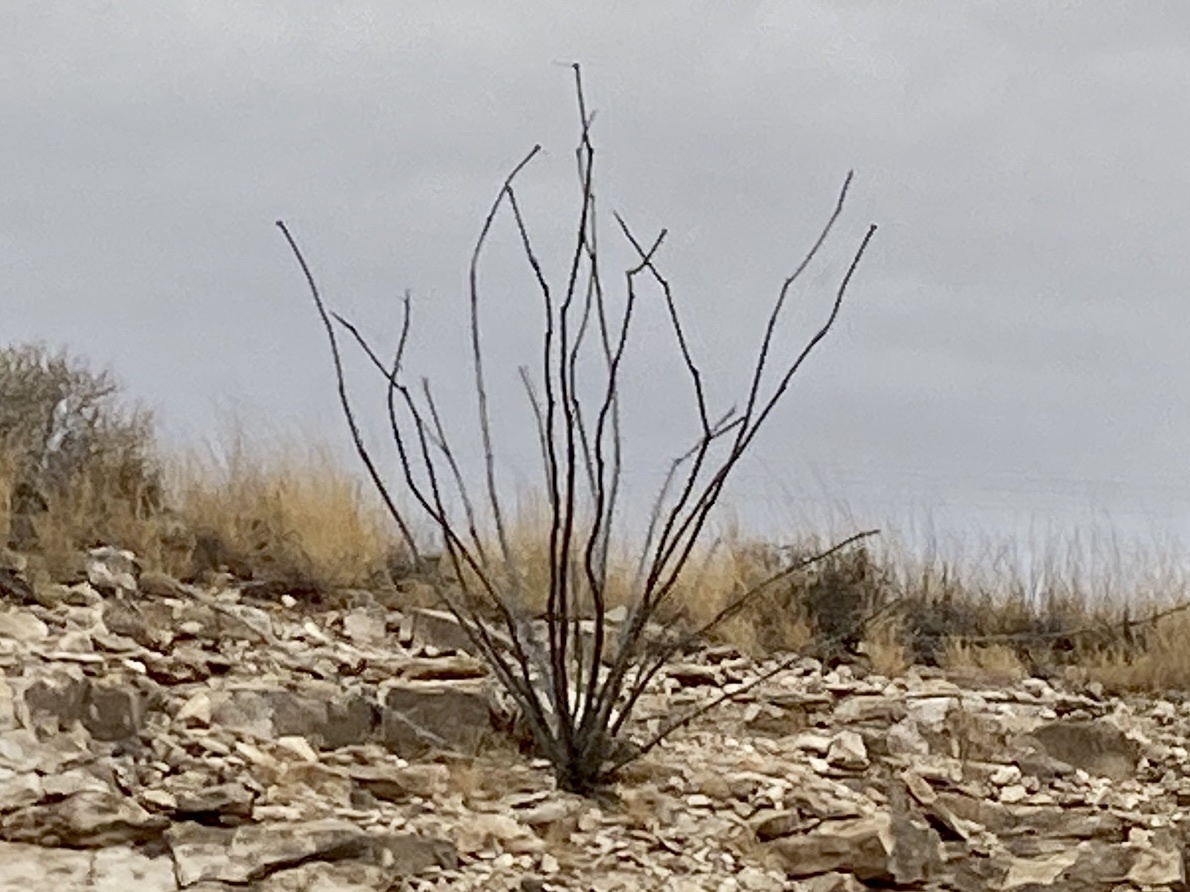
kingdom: Plantae
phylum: Tracheophyta
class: Magnoliopsida
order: Ericales
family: Fouquieriaceae
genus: Fouquieria
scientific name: Fouquieria splendens
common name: Vine-cactus
